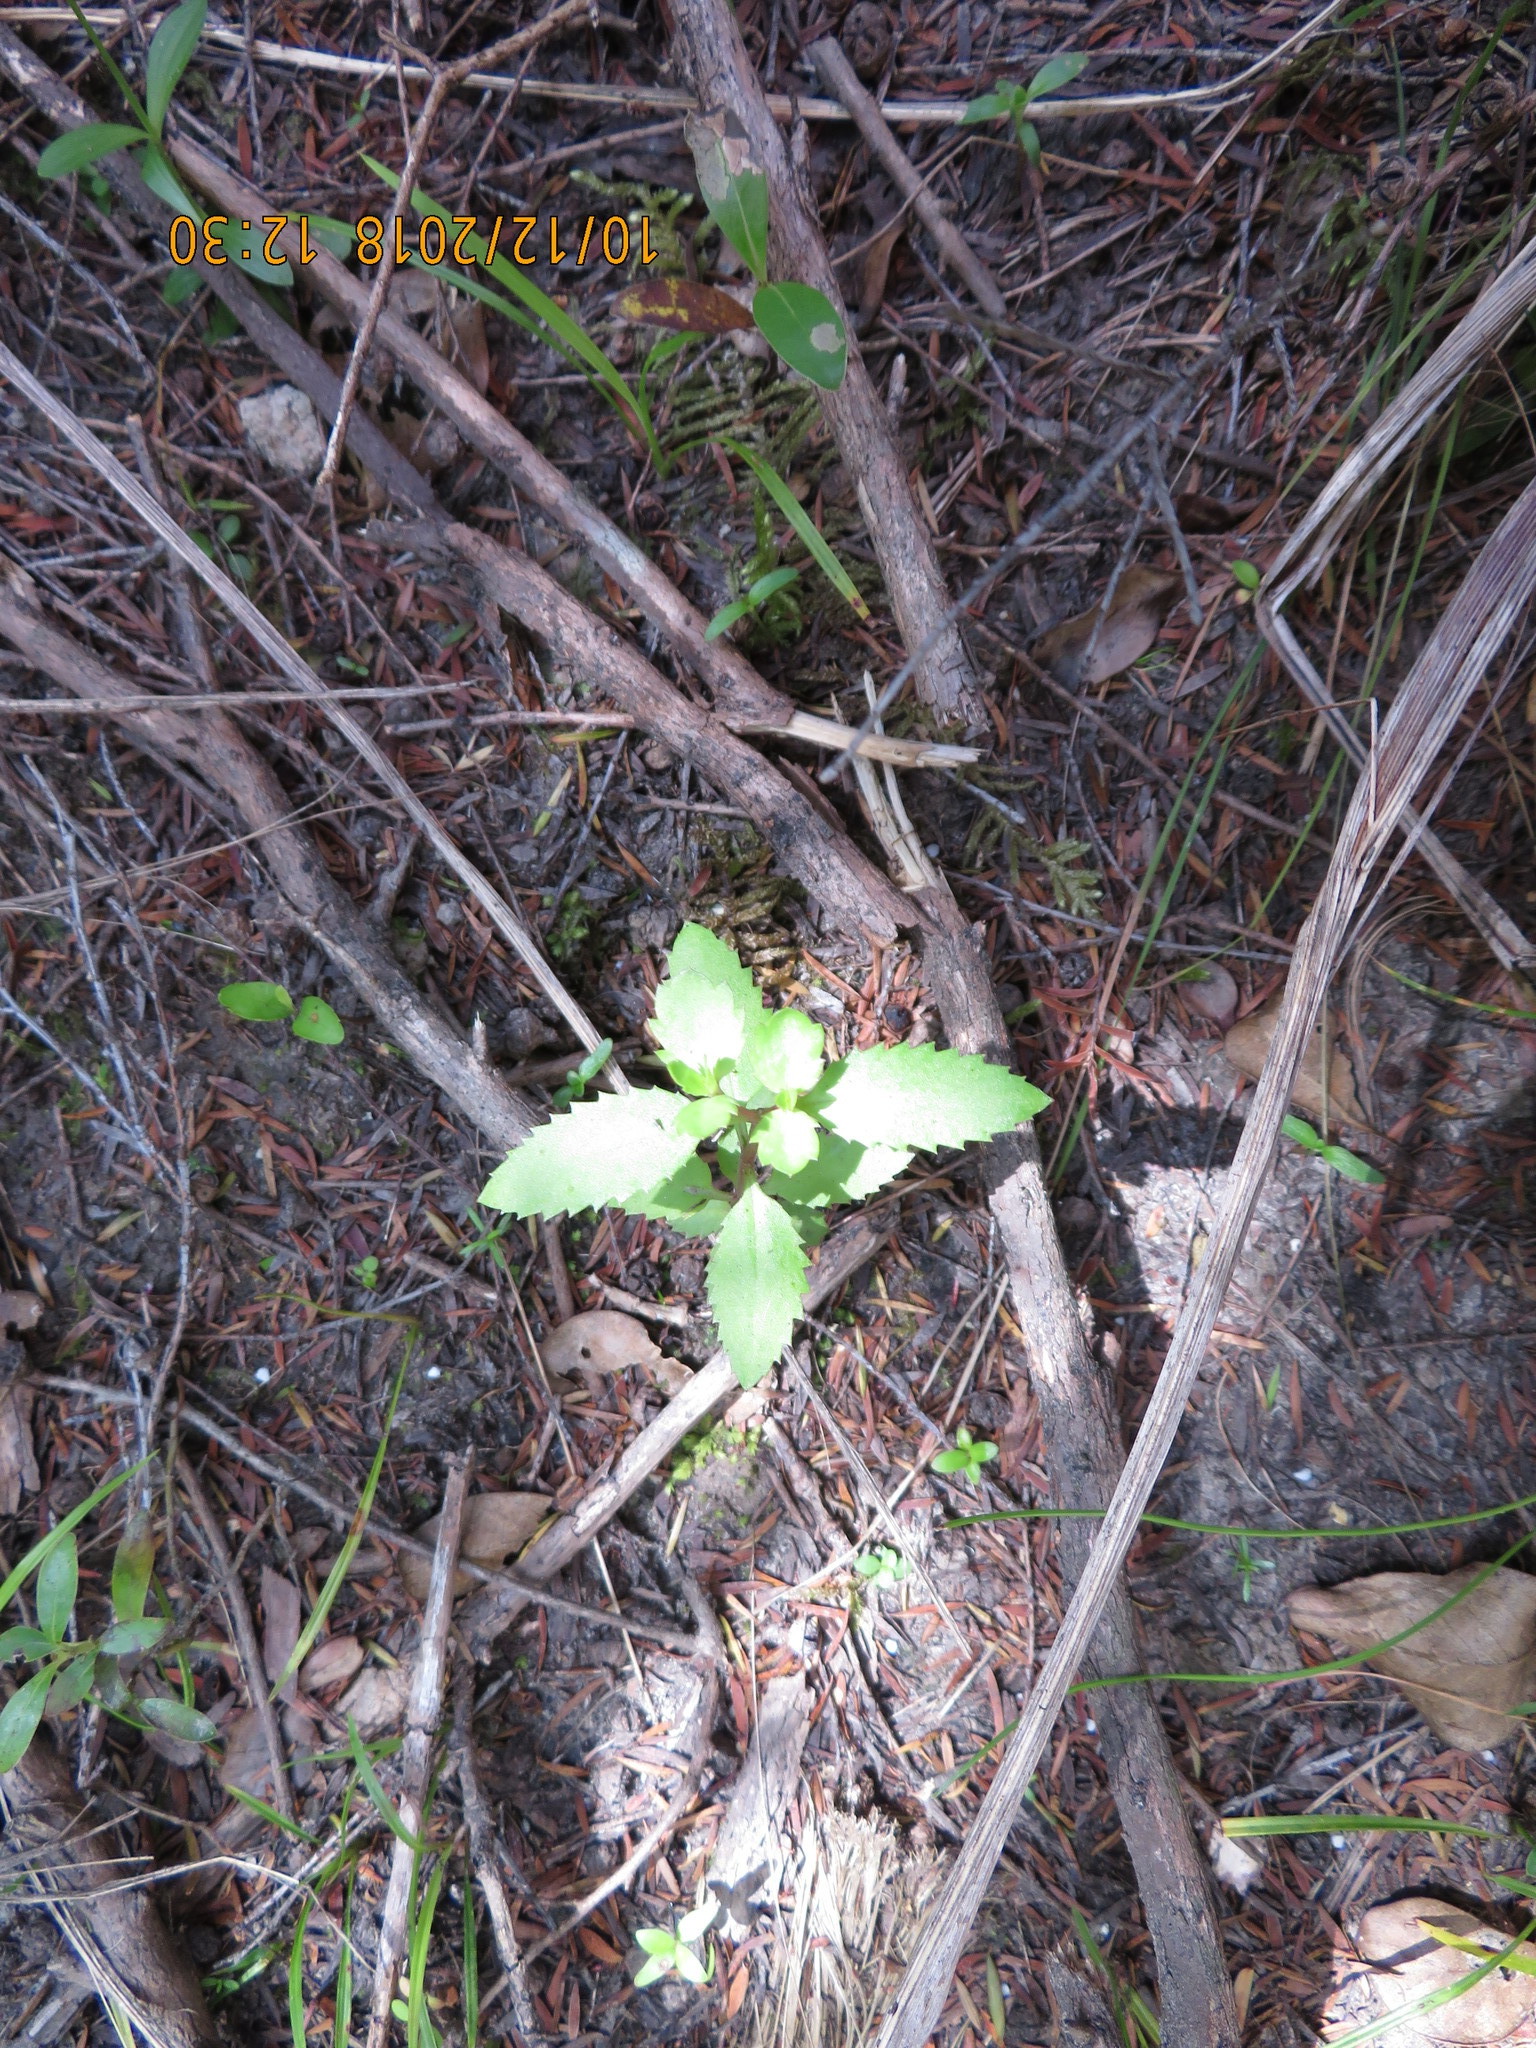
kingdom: Plantae
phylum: Tracheophyta
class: Magnoliopsida
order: Saxifragales
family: Haloragaceae
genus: Haloragis
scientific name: Haloragis erecta
